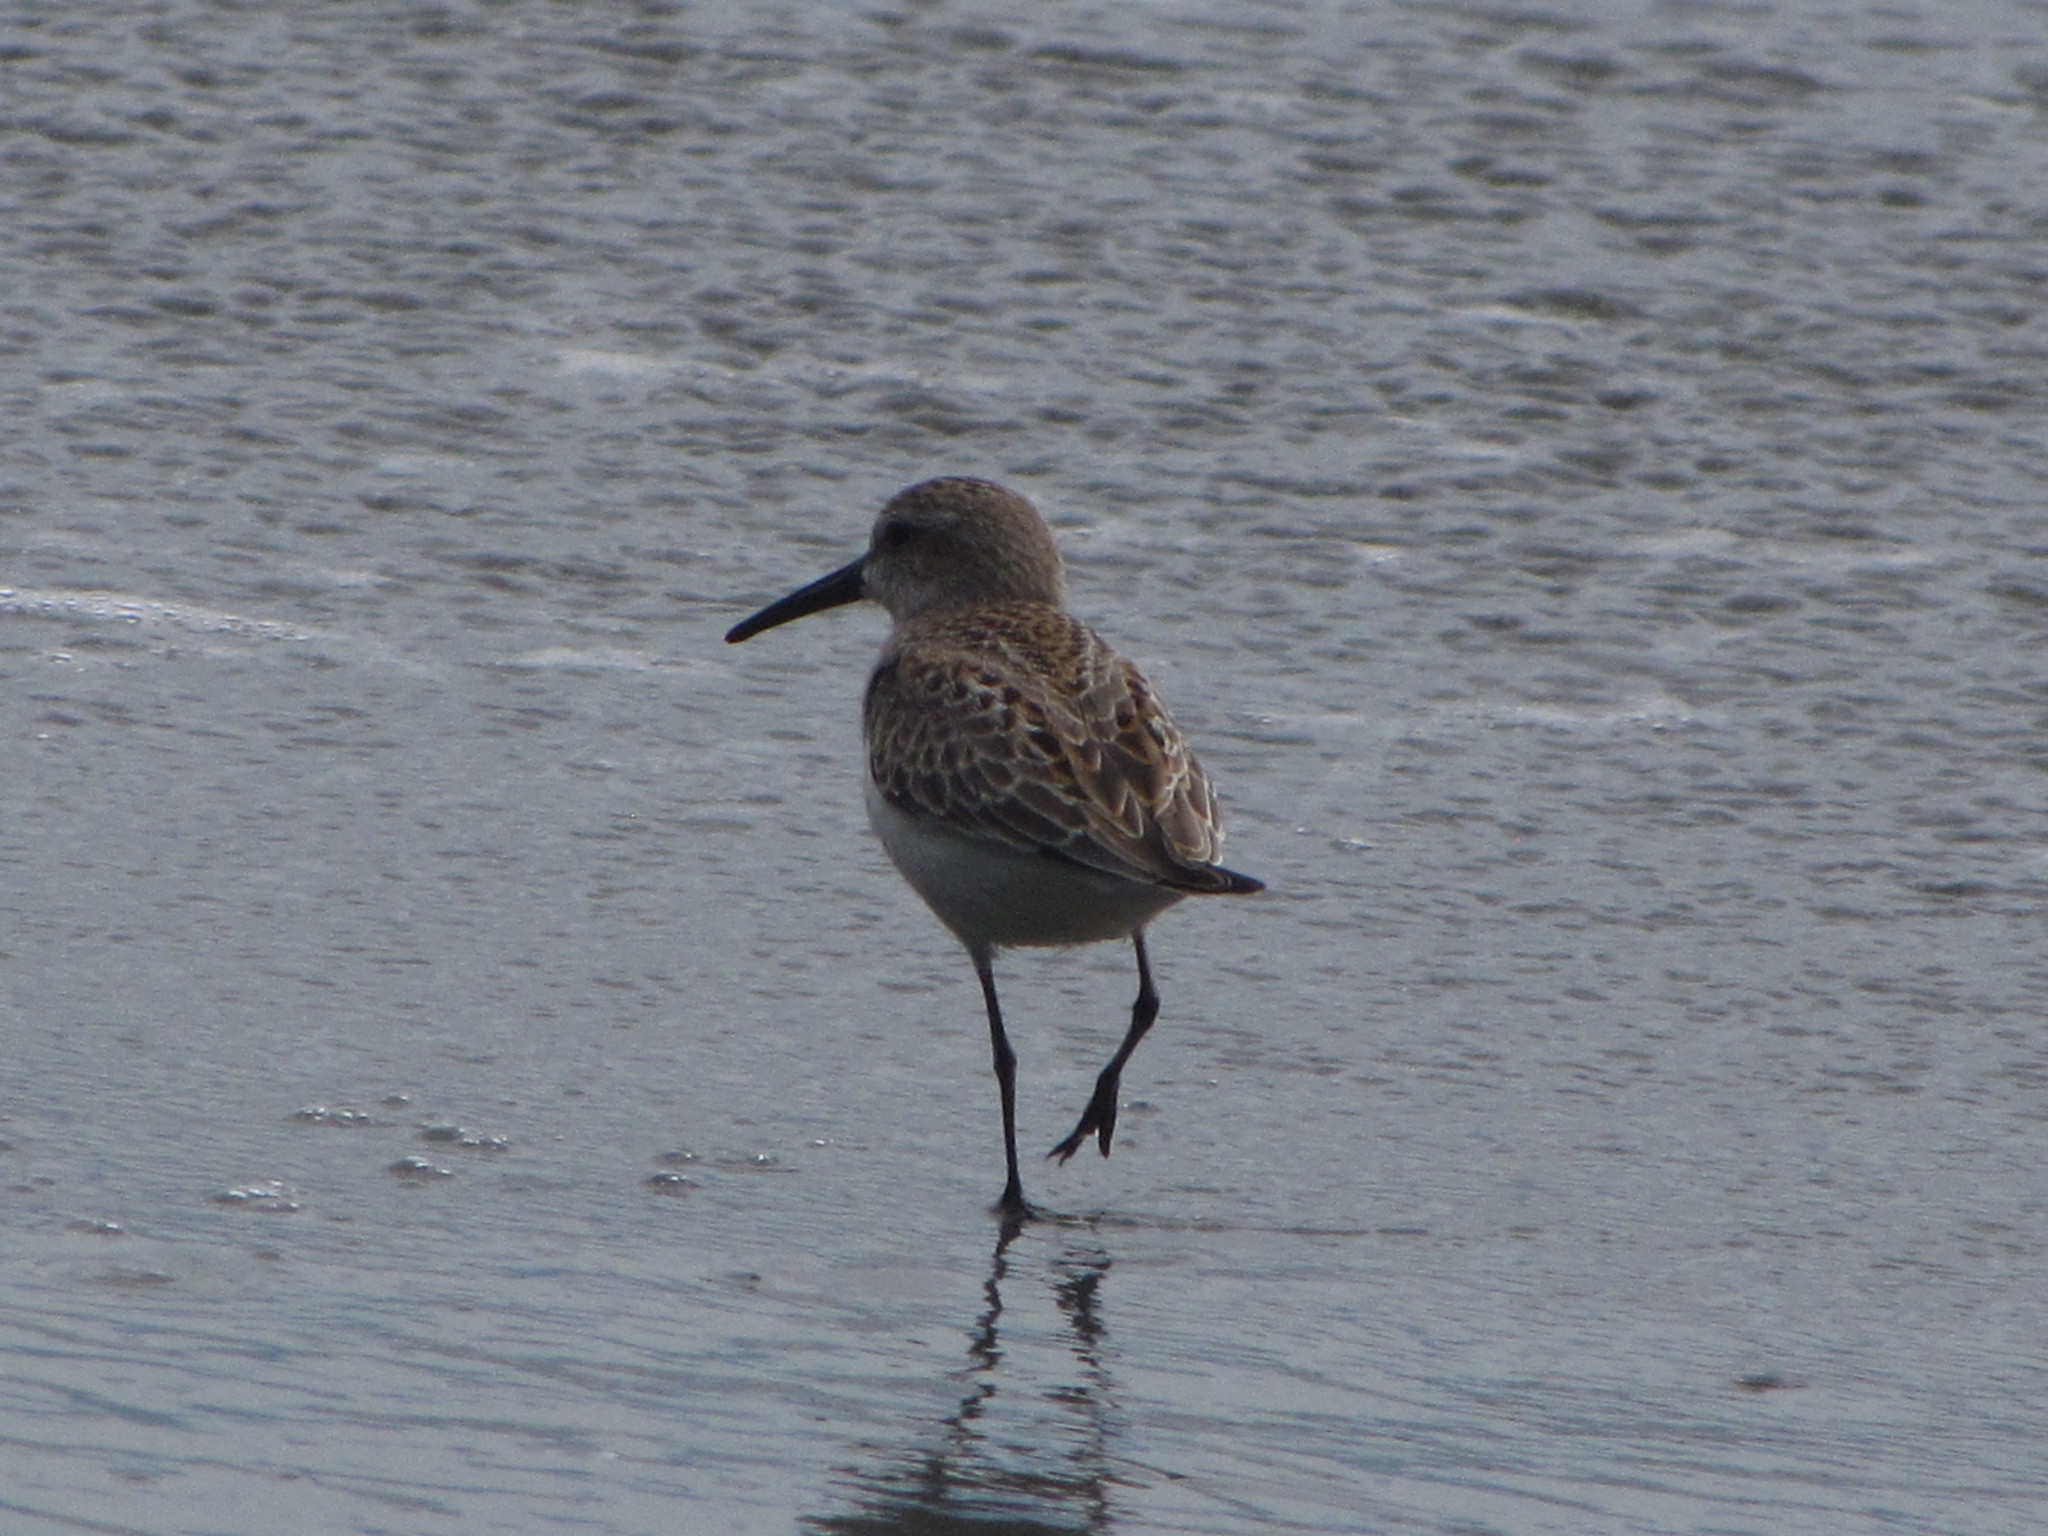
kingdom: Animalia
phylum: Chordata
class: Aves
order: Charadriiformes
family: Scolopacidae
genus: Calidris
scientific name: Calidris mauri
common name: Western sandpiper
